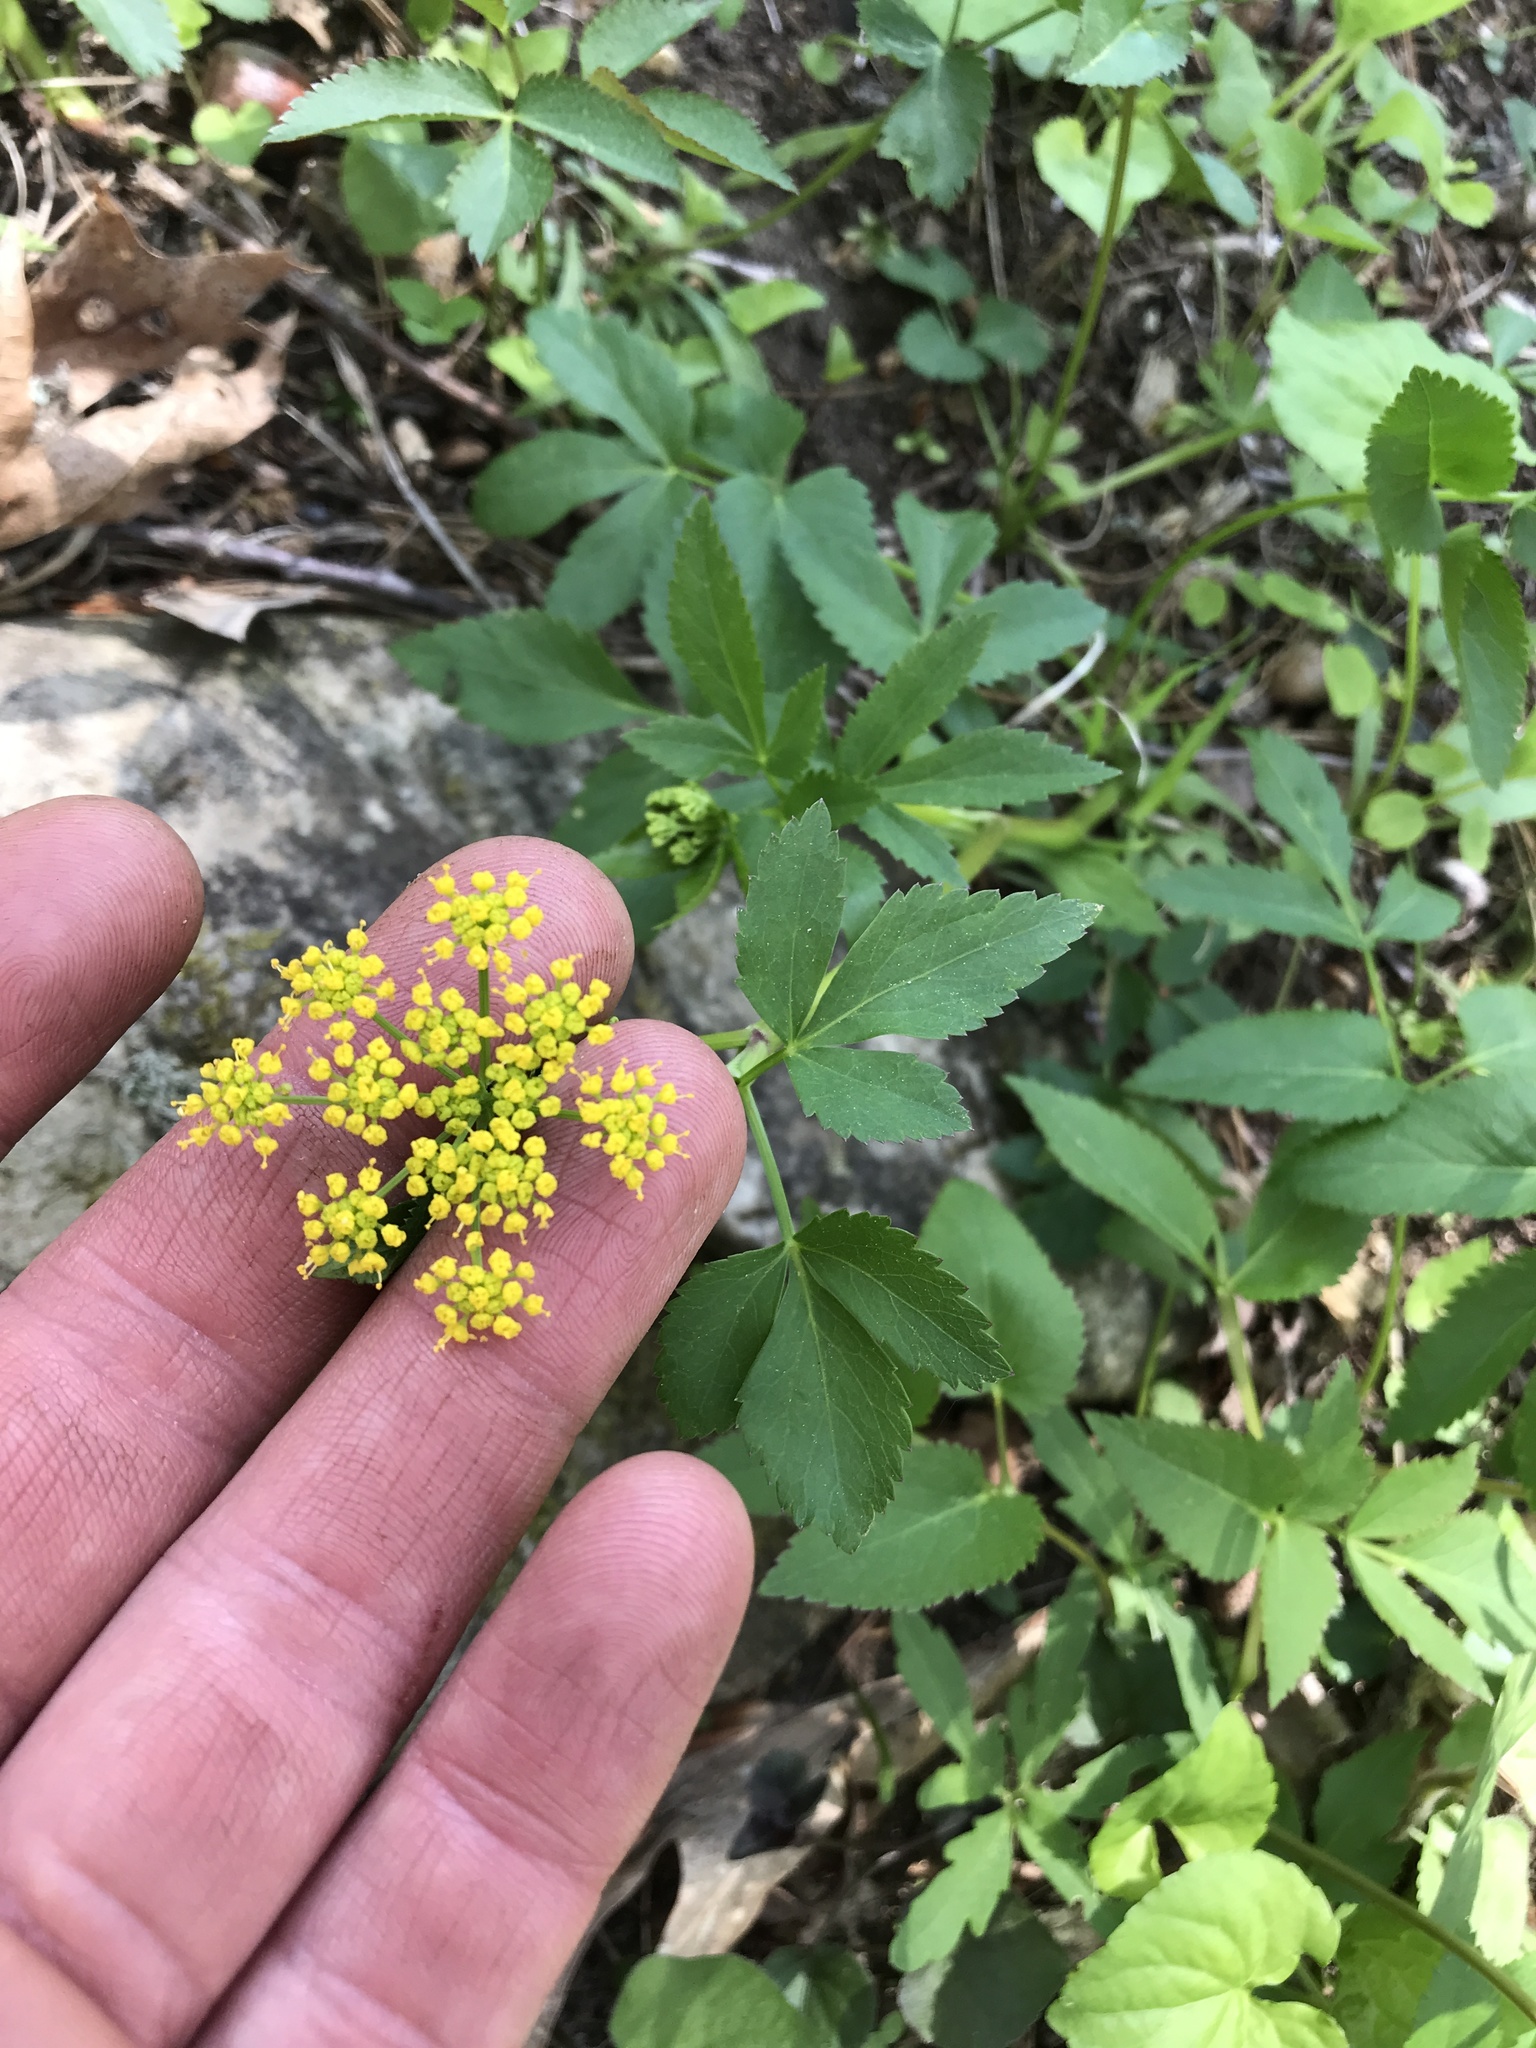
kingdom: Plantae
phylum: Tracheophyta
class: Magnoliopsida
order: Apiales
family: Apiaceae
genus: Zizia
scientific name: Zizia aurea
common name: Golden alexanders
